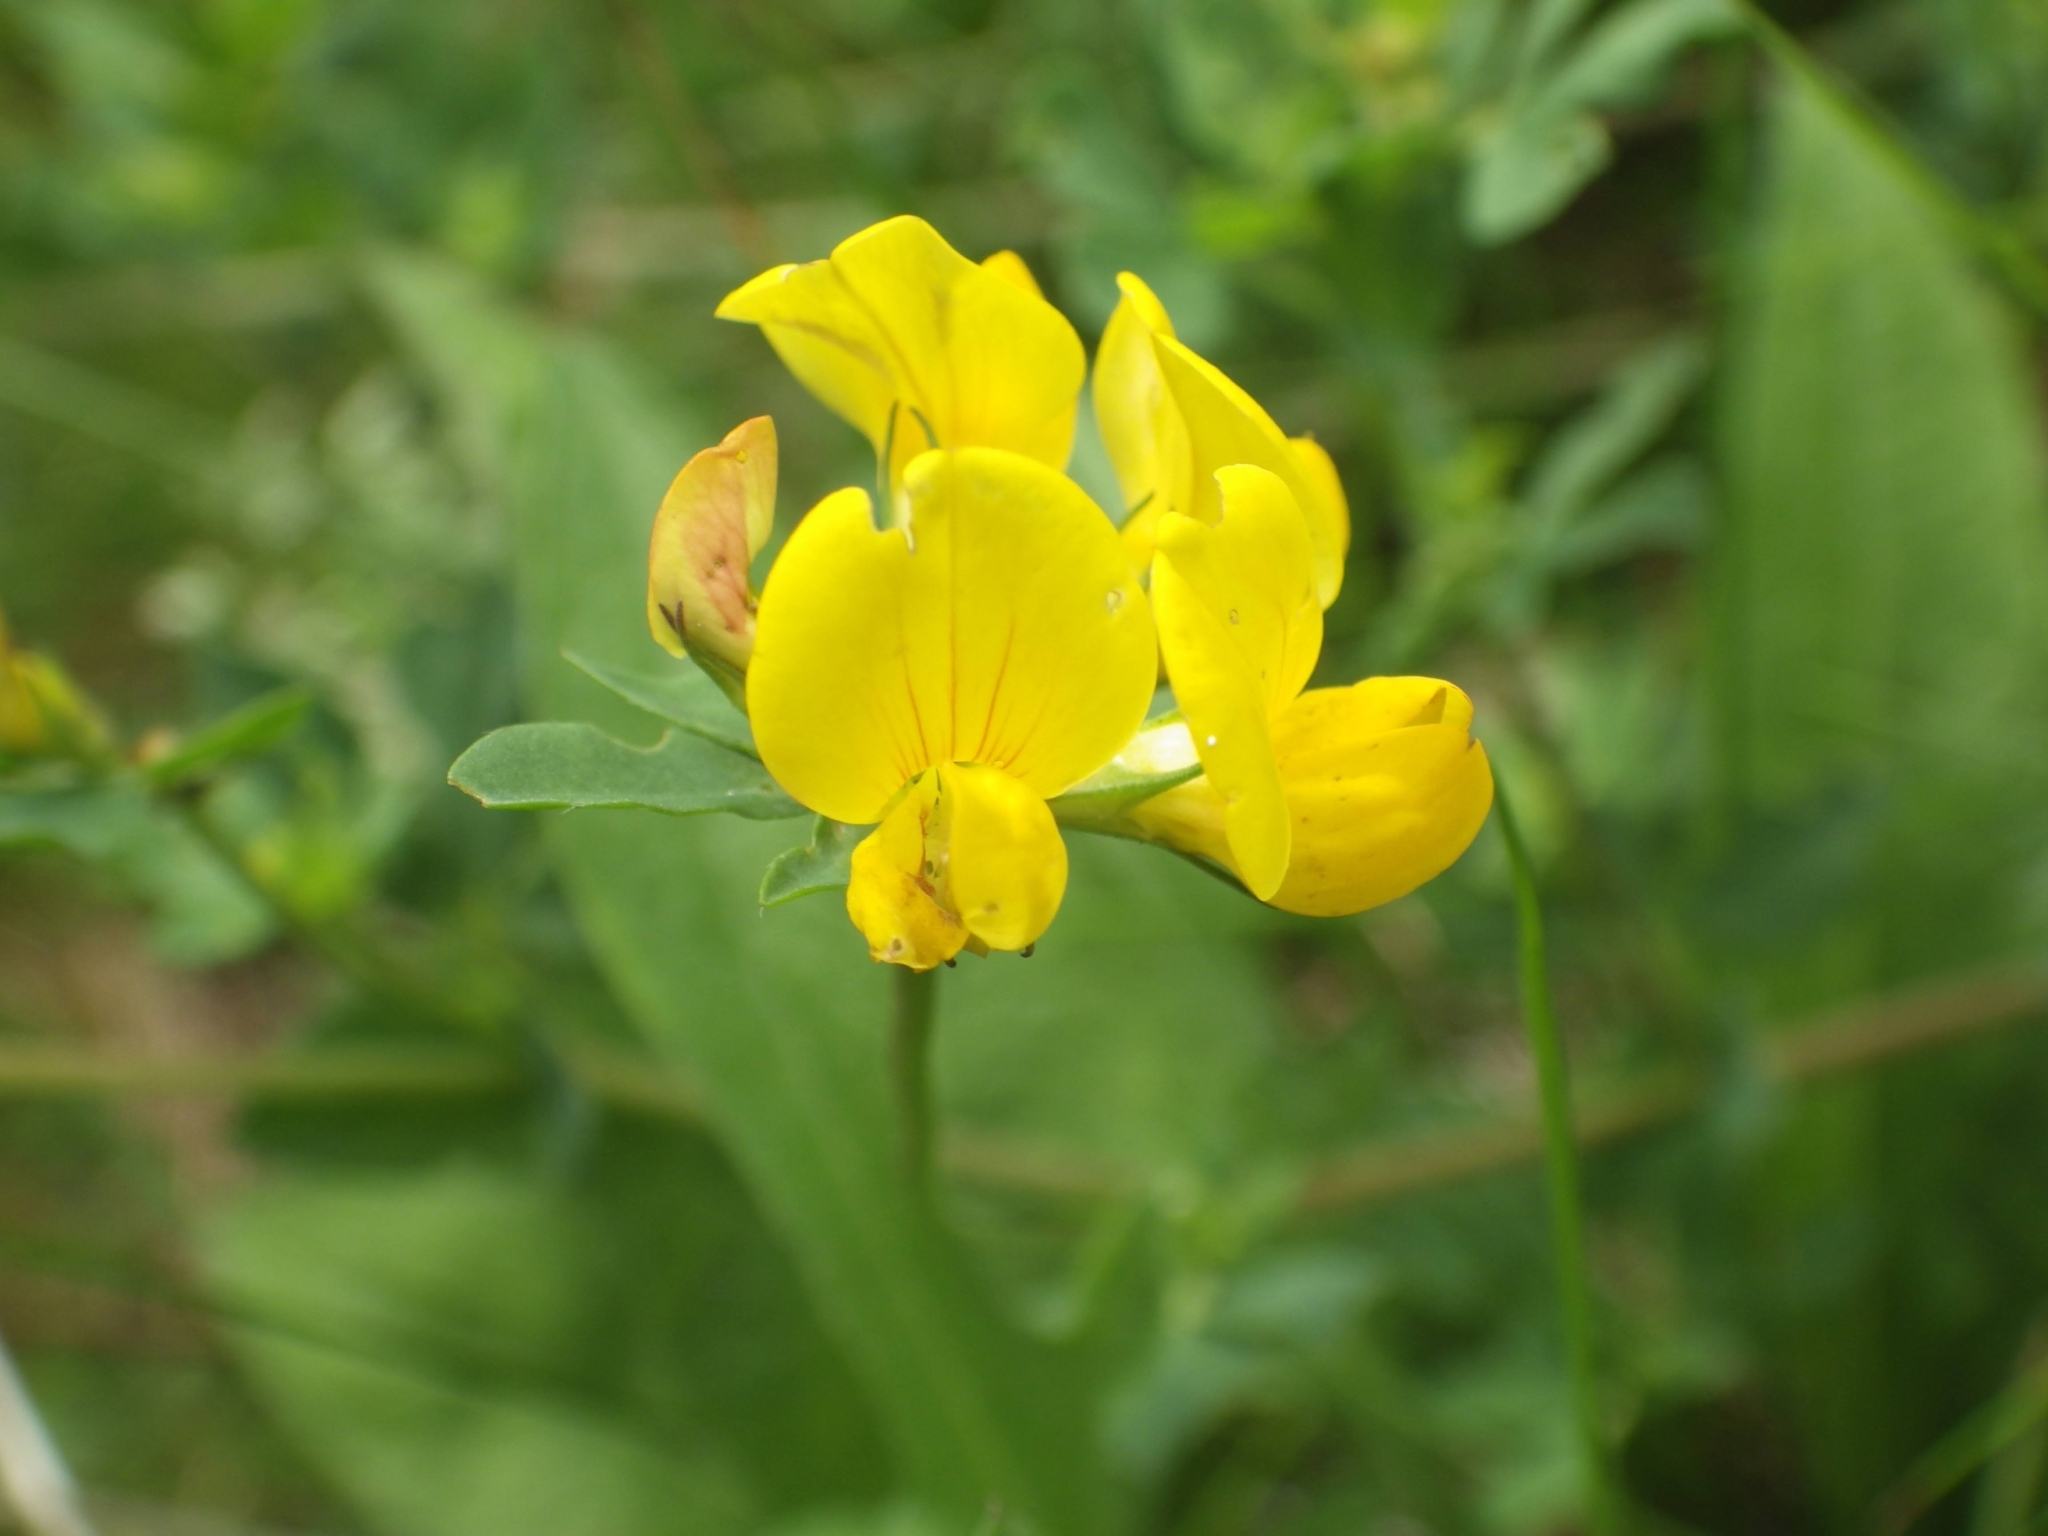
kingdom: Plantae
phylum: Tracheophyta
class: Magnoliopsida
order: Fabales
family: Fabaceae
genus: Lotus
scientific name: Lotus pedunculatus
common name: Greater birdsfoot-trefoil
